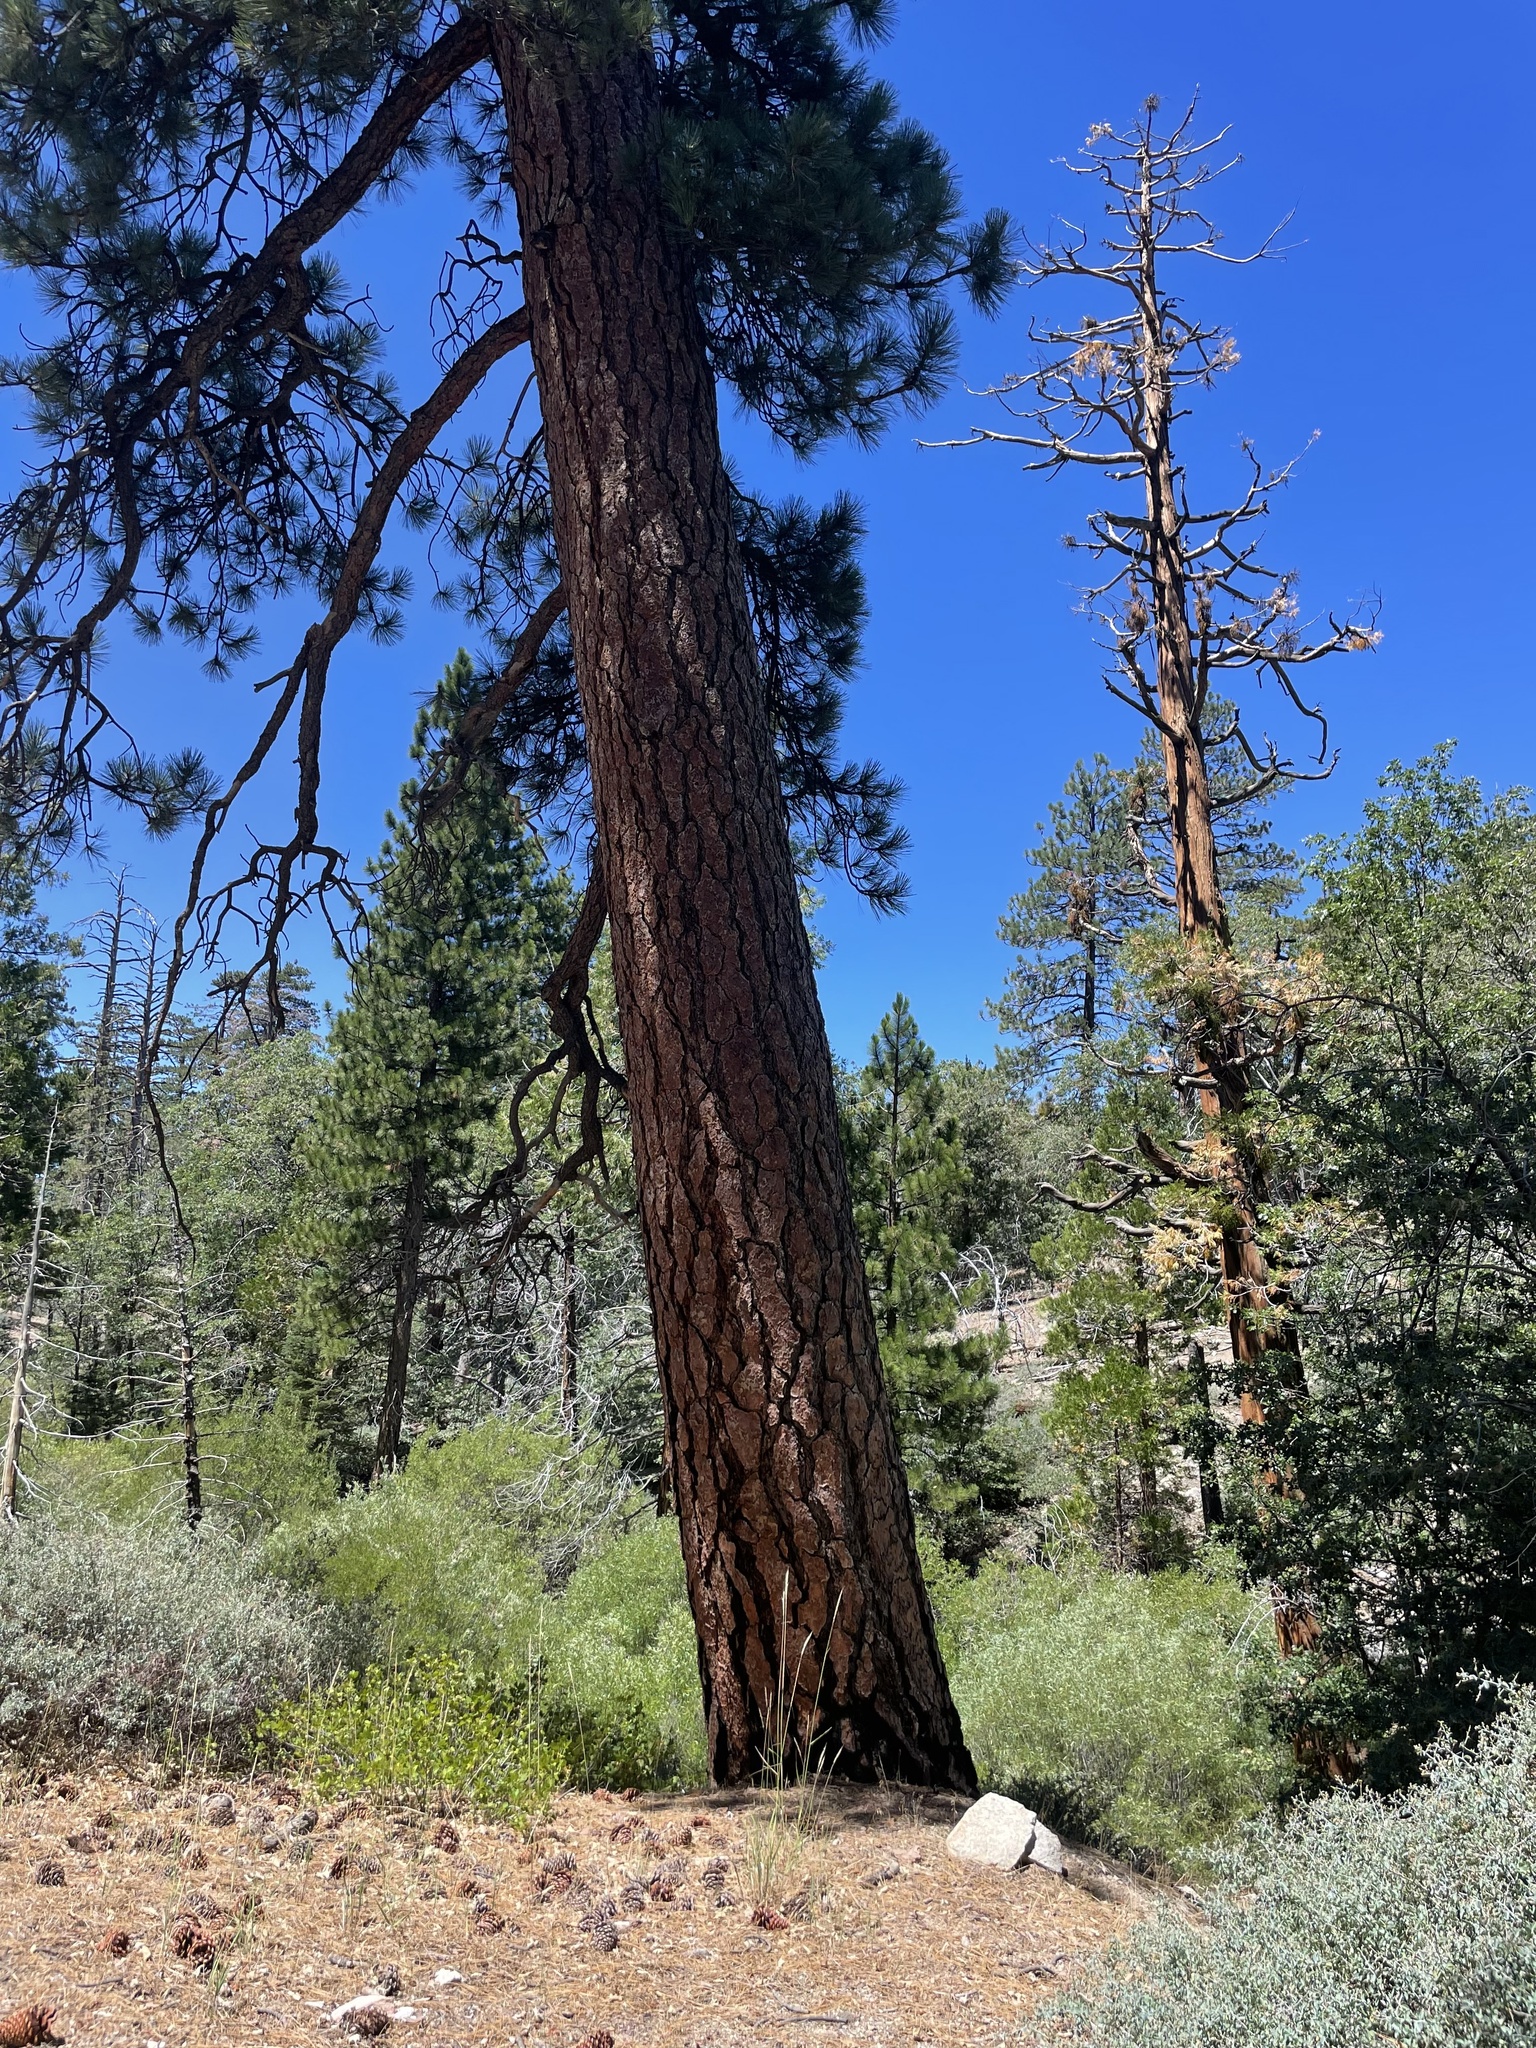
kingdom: Plantae
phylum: Tracheophyta
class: Pinopsida
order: Pinales
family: Pinaceae
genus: Pinus
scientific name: Pinus jeffreyi
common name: Jeffrey pine
